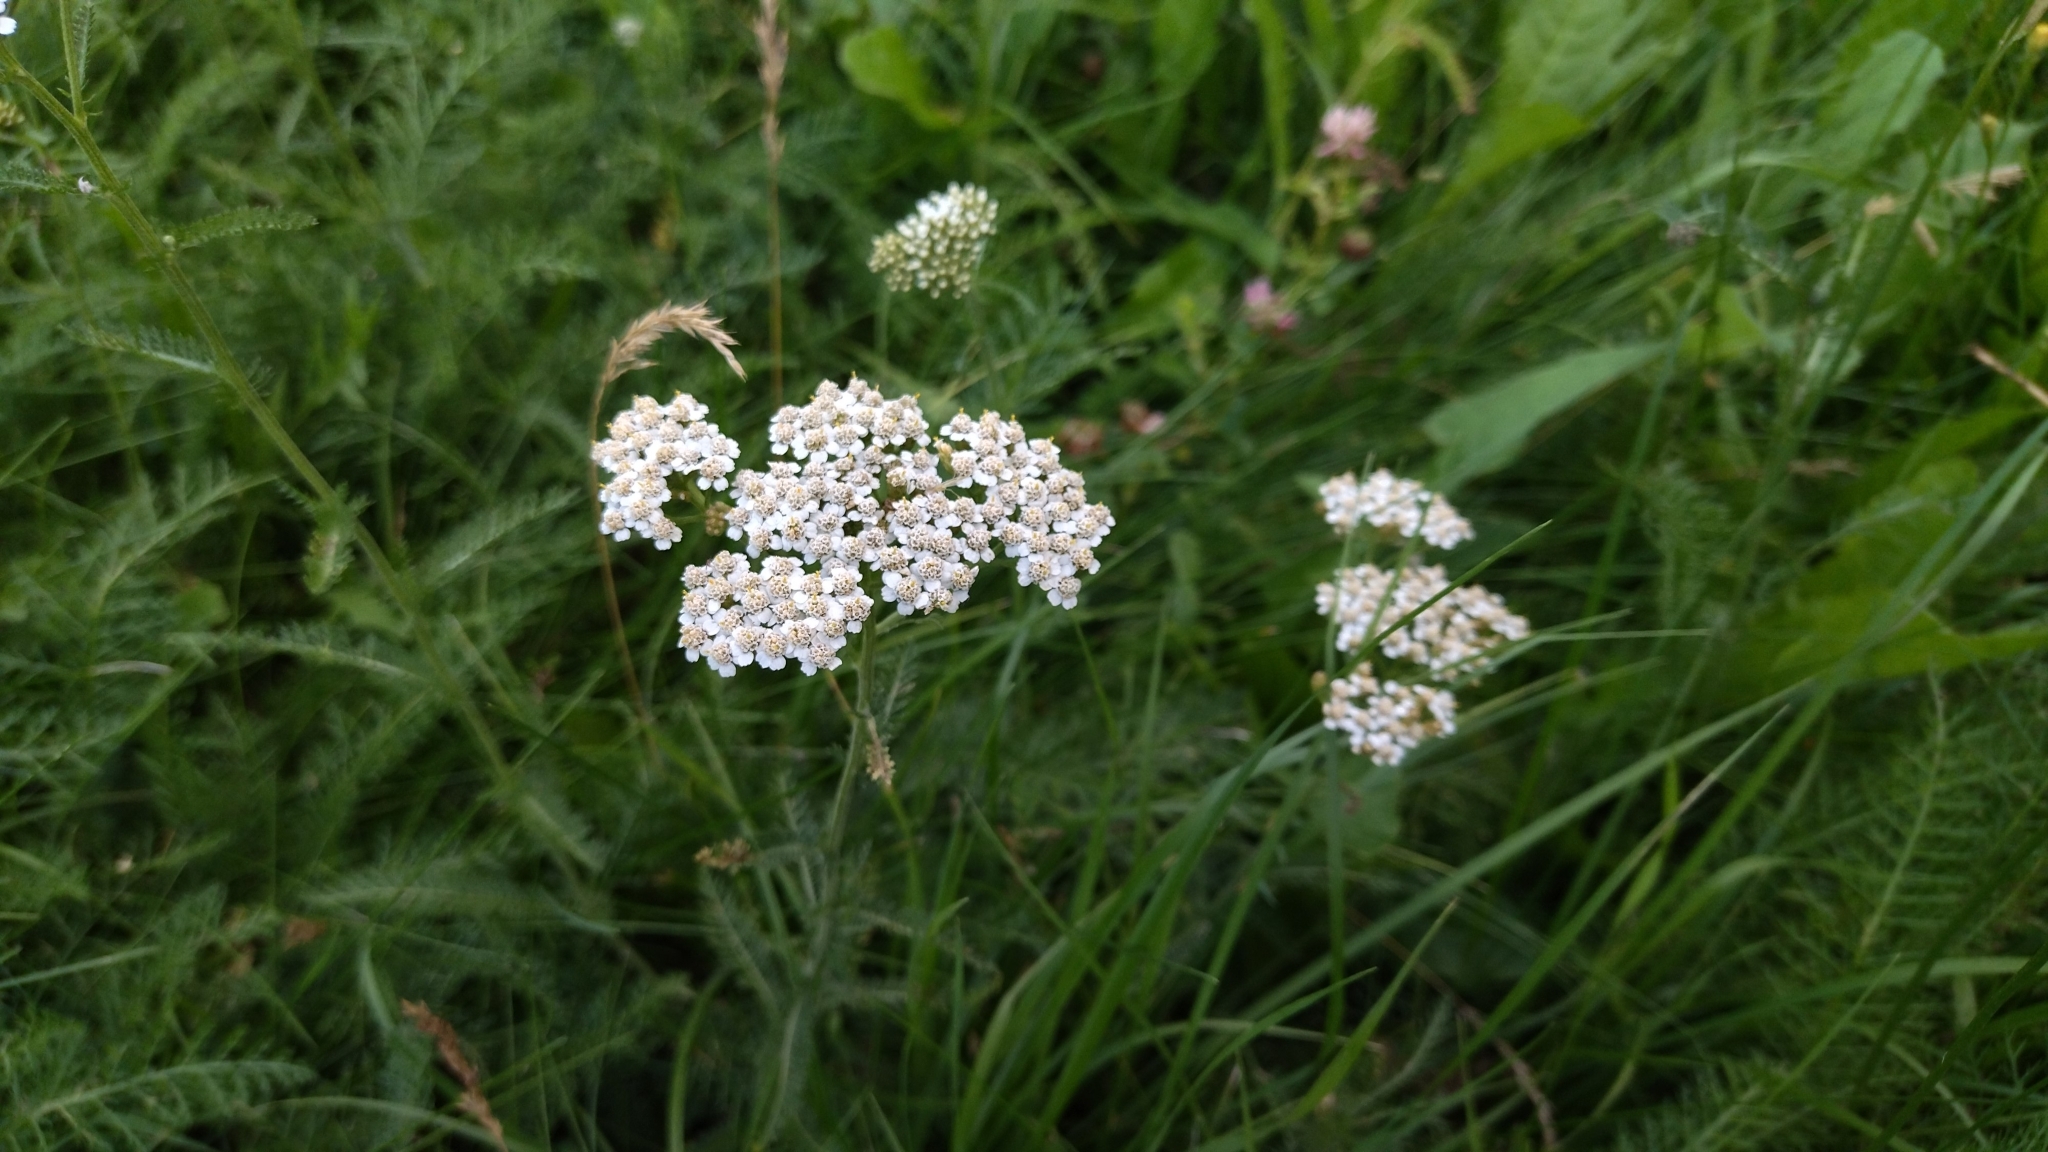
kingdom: Plantae
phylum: Tracheophyta
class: Magnoliopsida
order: Asterales
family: Asteraceae
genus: Achillea
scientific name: Achillea millefolium
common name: Yarrow
